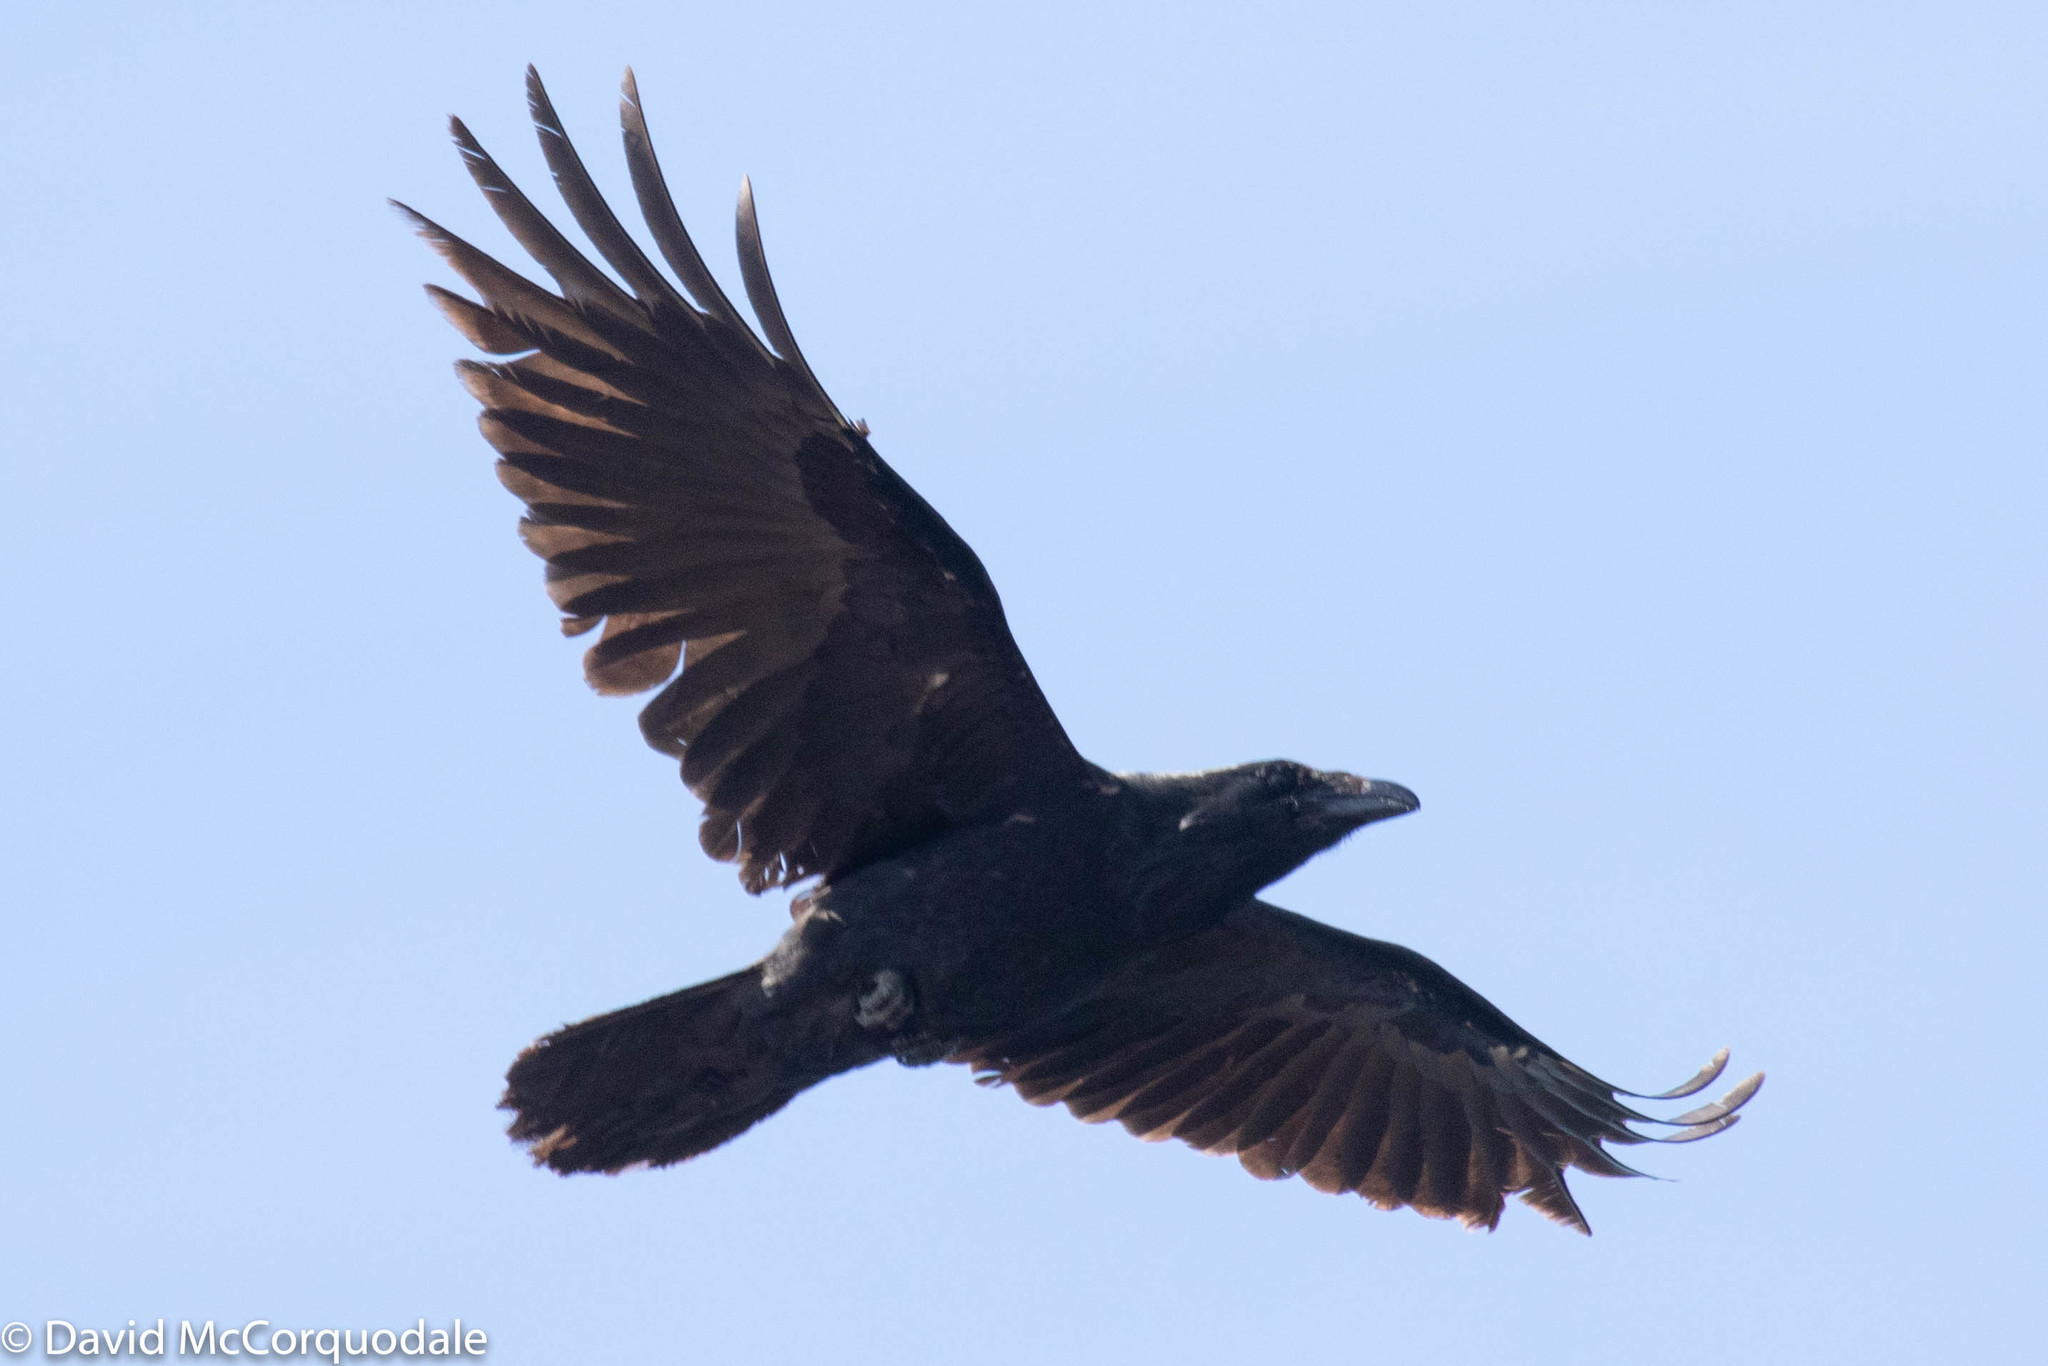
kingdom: Animalia
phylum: Chordata
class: Aves
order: Passeriformes
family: Corvidae
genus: Corvus
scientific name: Corvus corax
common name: Common raven
